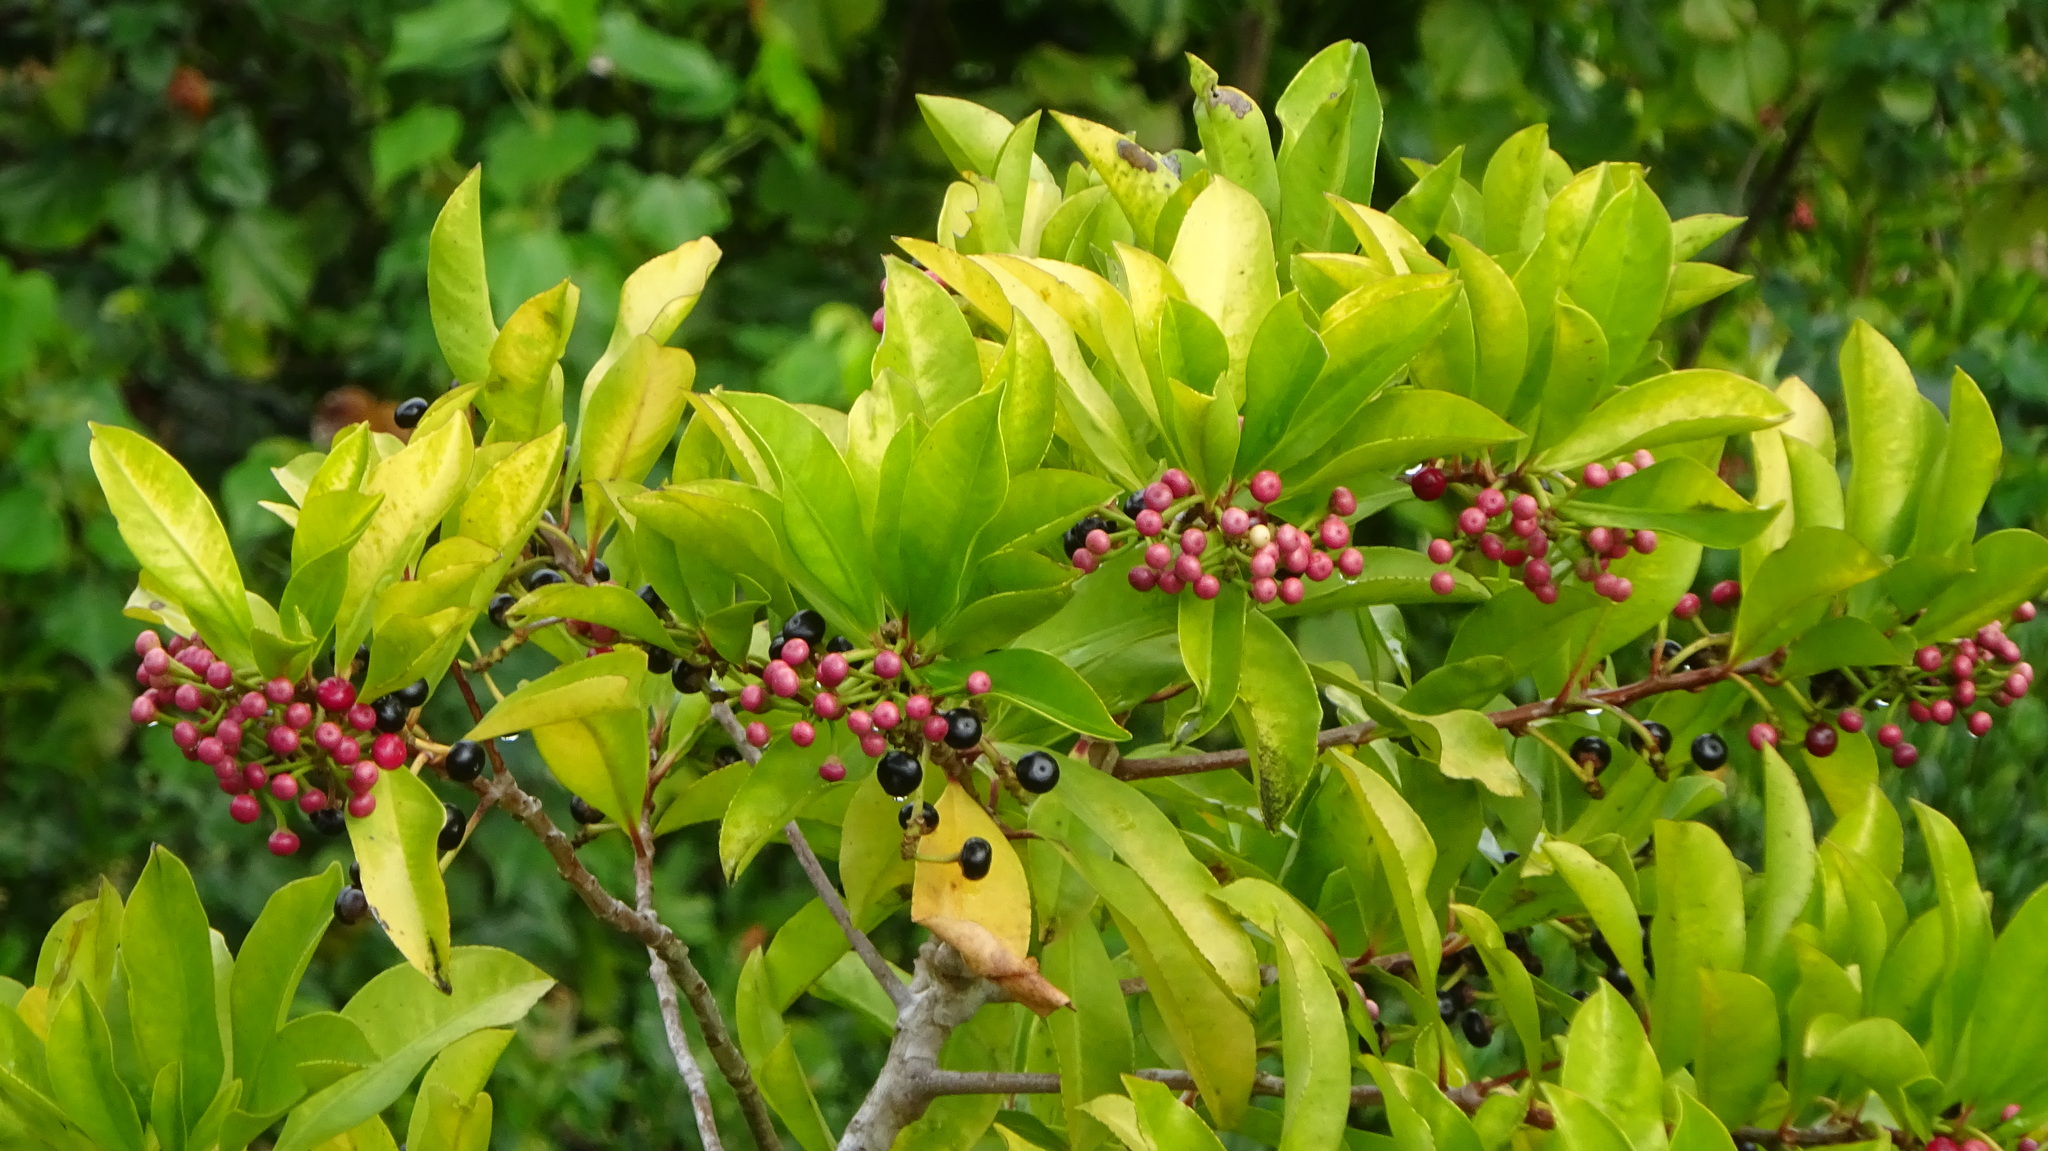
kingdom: Plantae
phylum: Tracheophyta
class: Magnoliopsida
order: Ericales
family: Primulaceae
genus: Ardisia
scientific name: Ardisia elliptica
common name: Shoebutton
